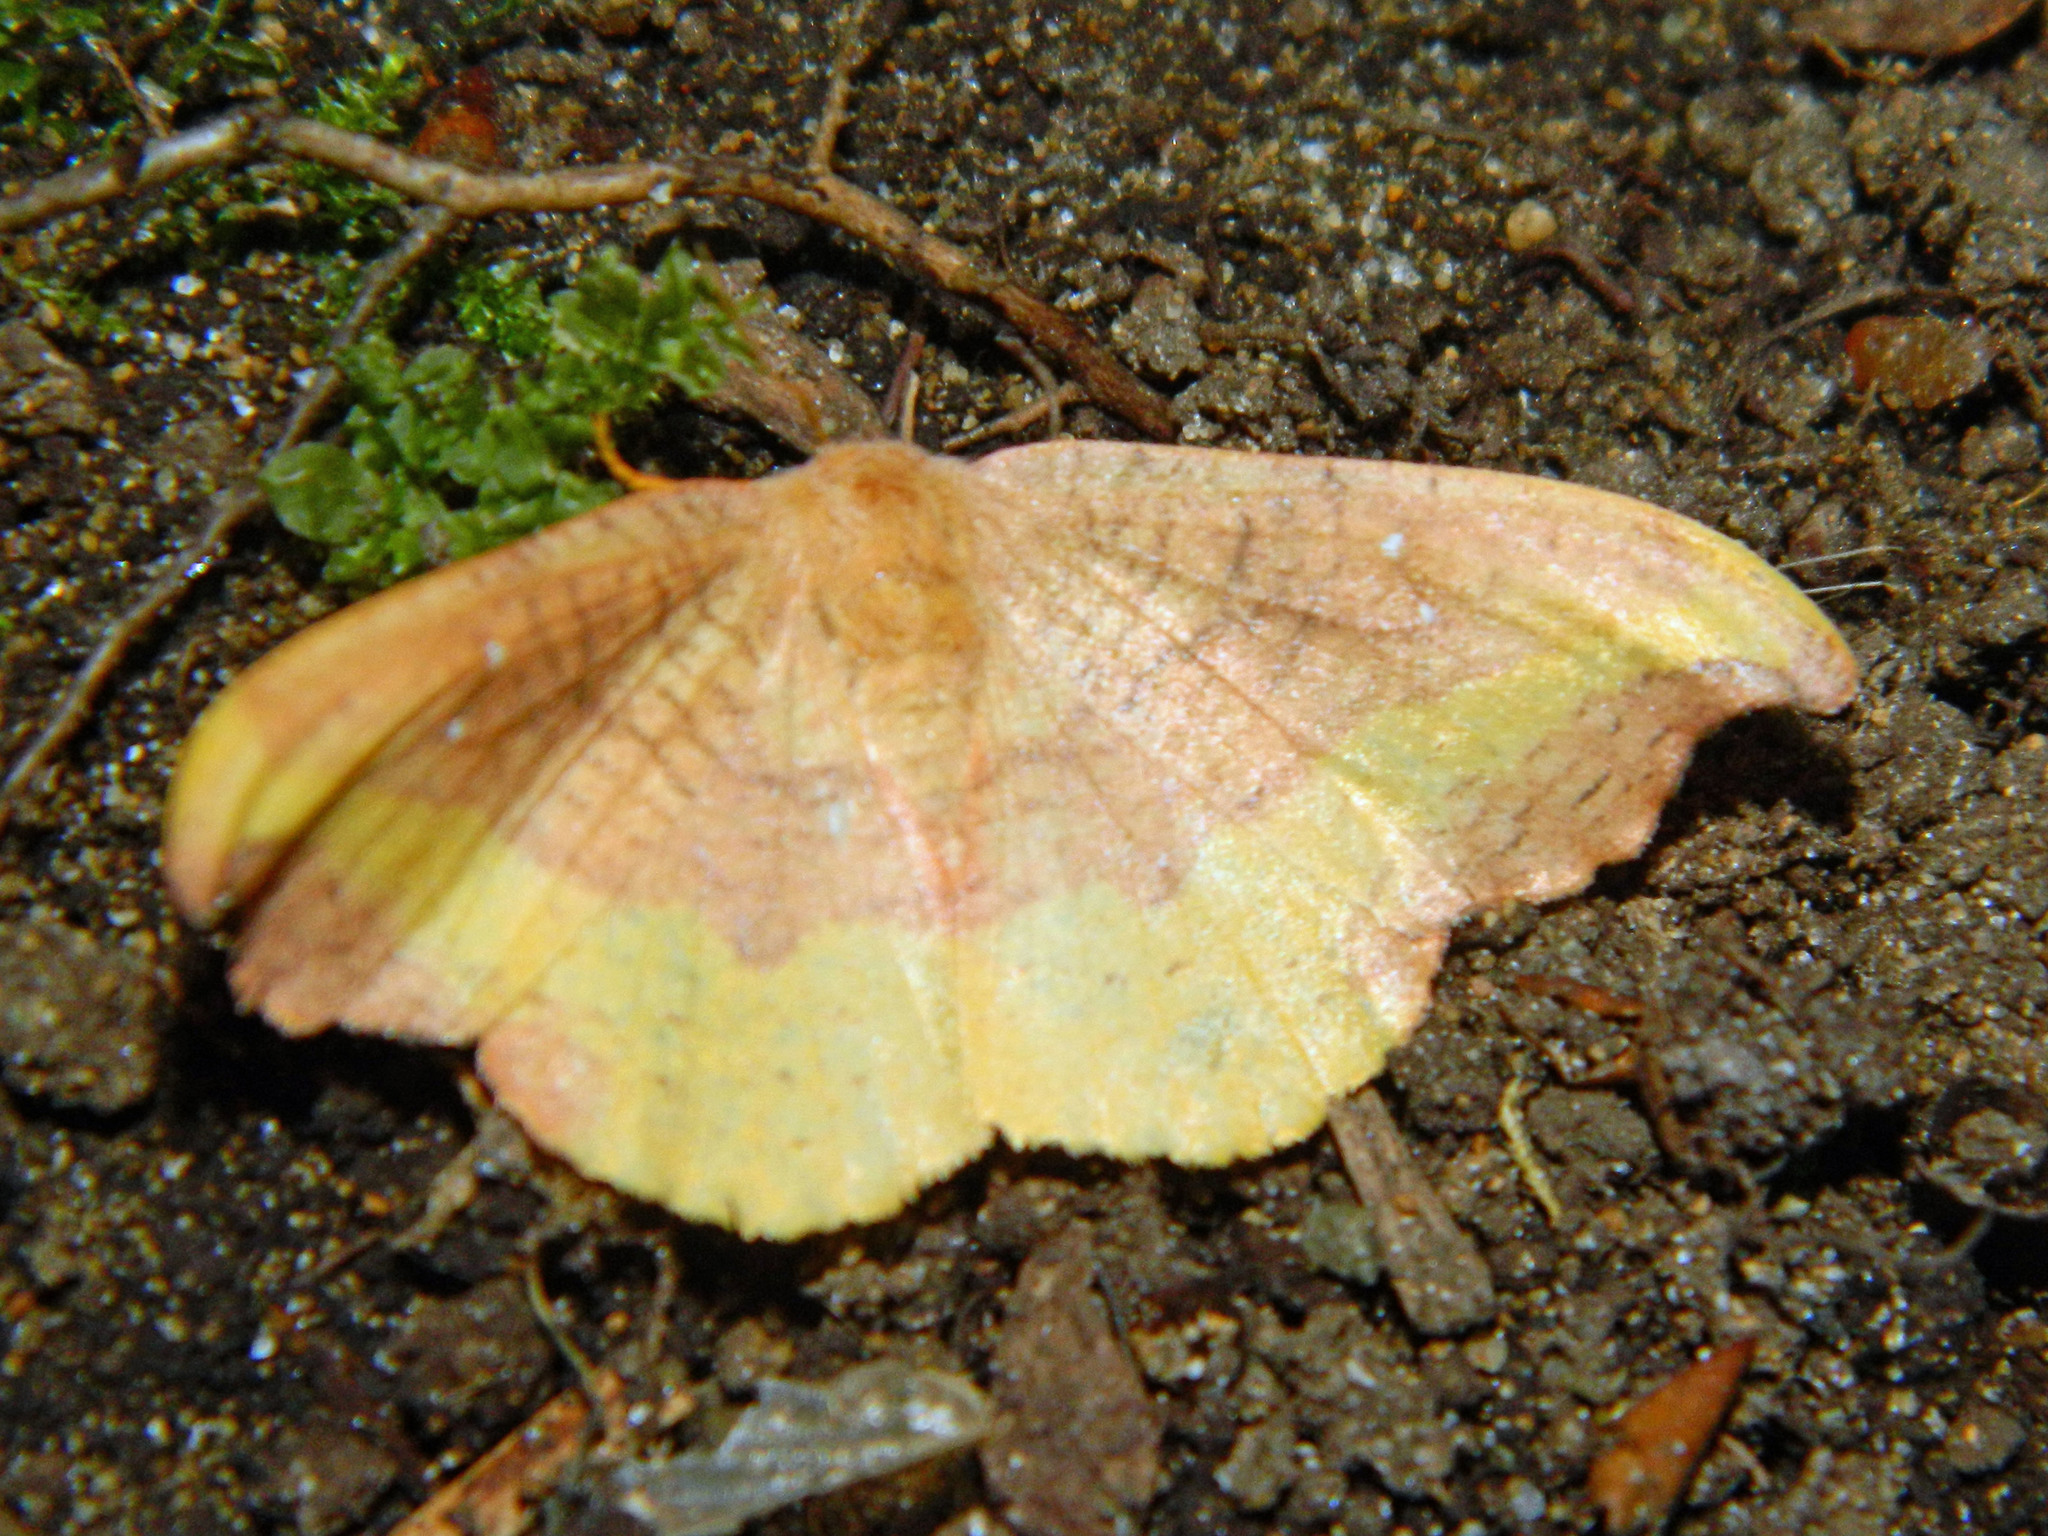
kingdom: Animalia
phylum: Arthropoda
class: Insecta
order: Lepidoptera
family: Drepanidae
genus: Oreta
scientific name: Oreta rosea
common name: Rose hooktip
